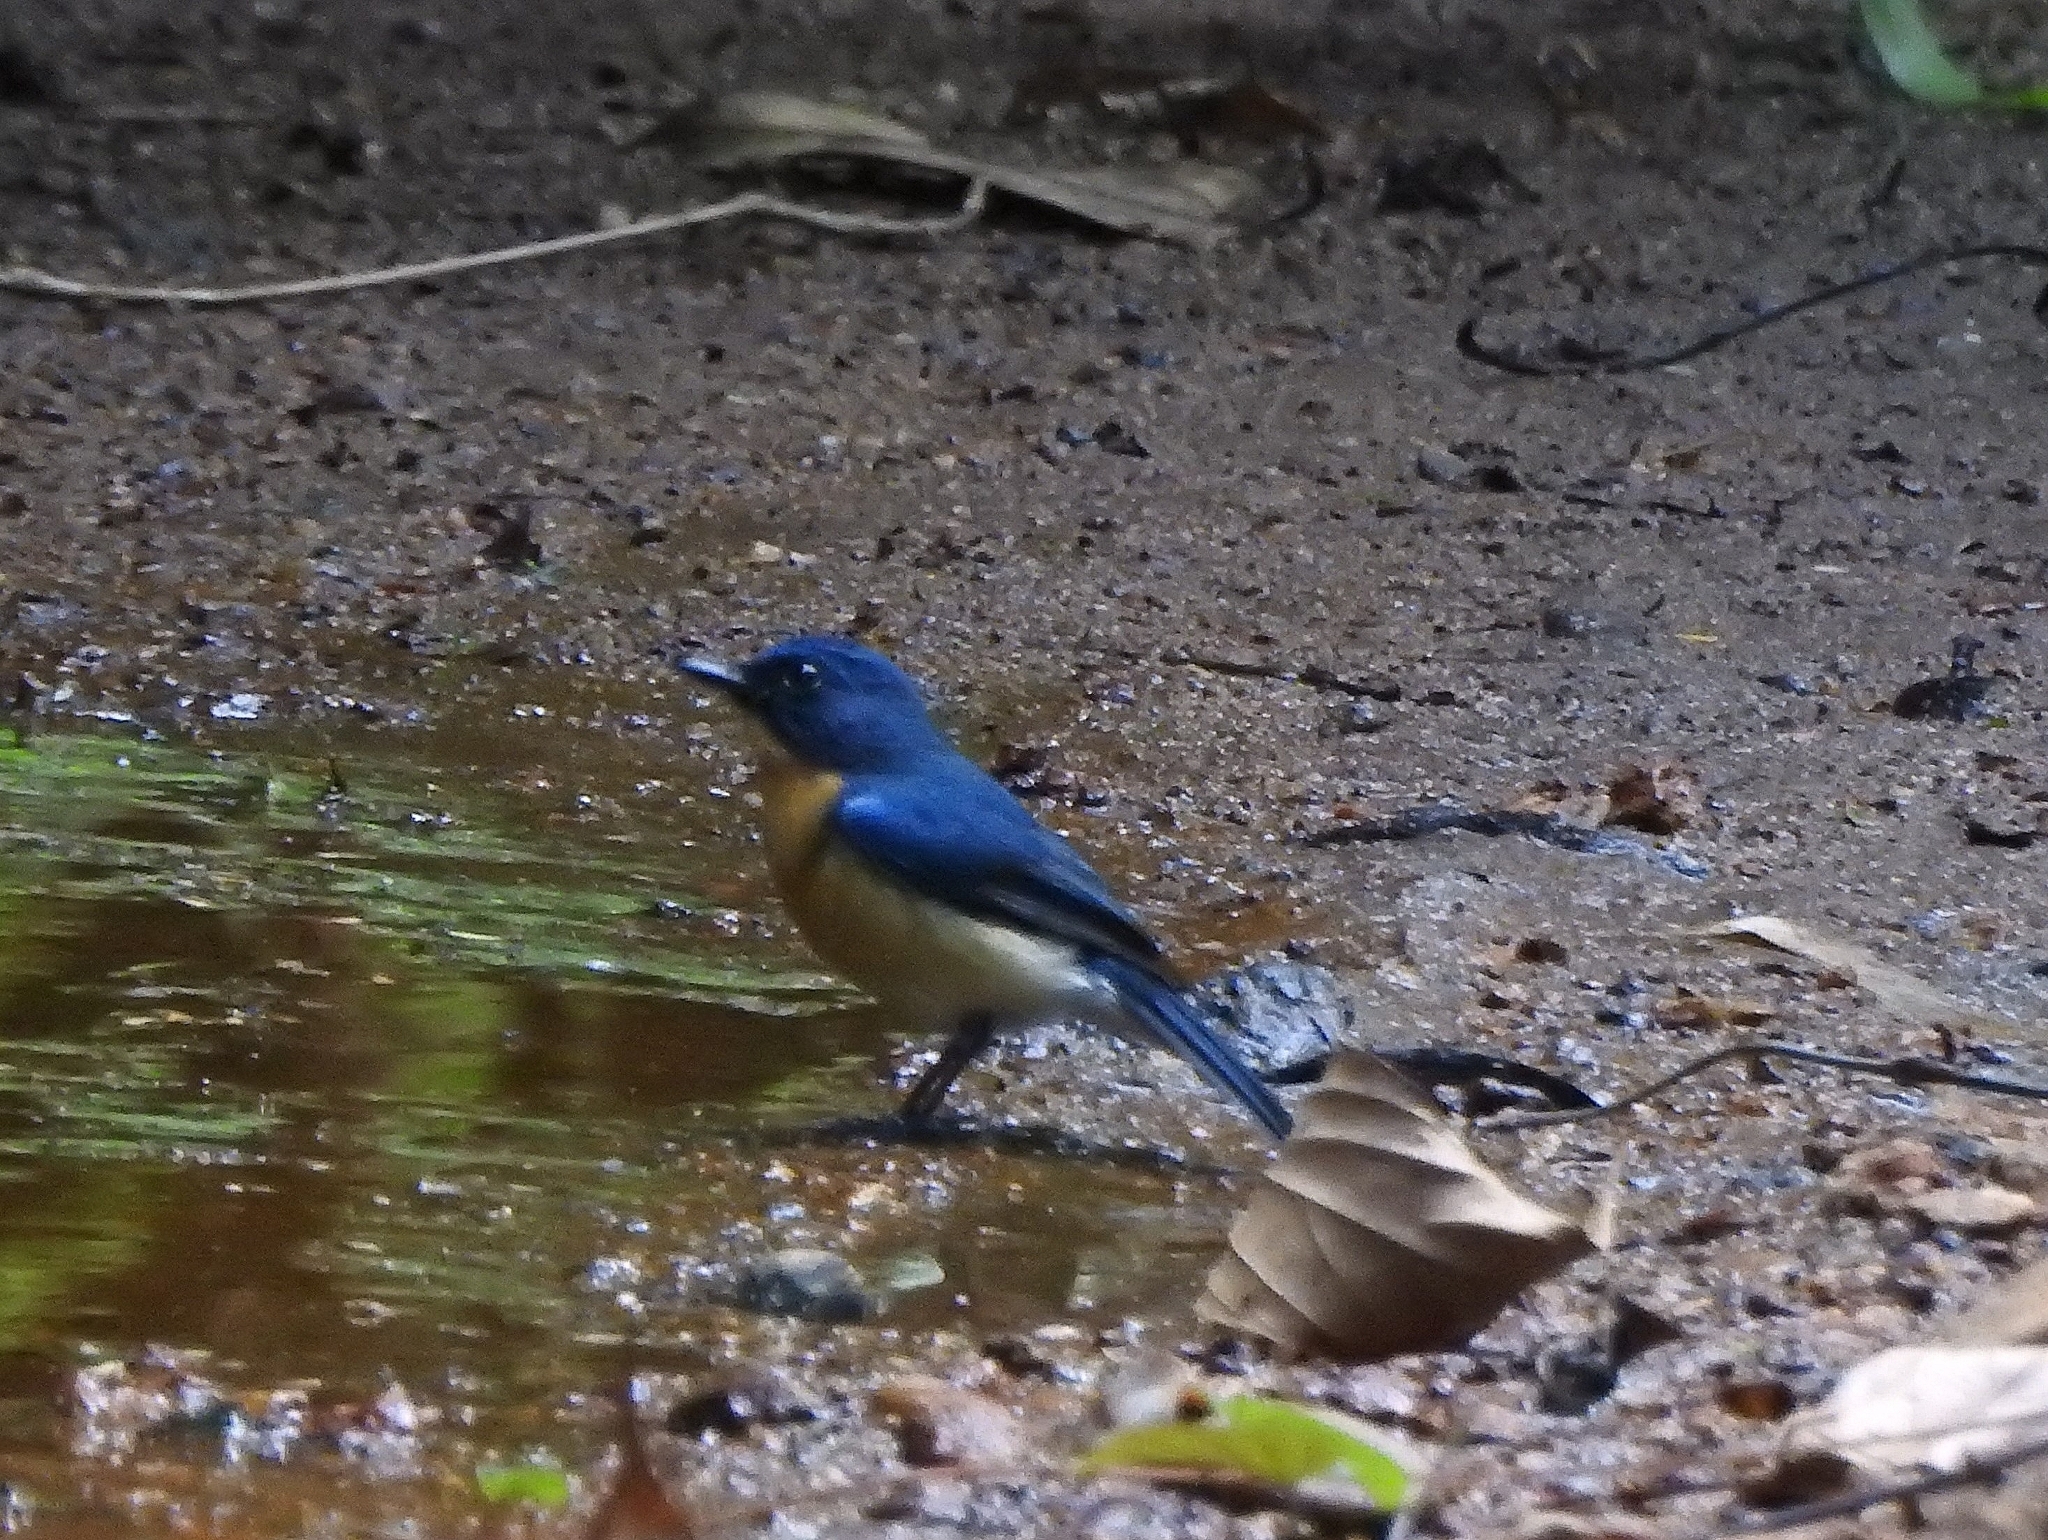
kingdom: Animalia
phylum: Chordata
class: Aves
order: Passeriformes
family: Muscicapidae
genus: Cyornis
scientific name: Cyornis tickelliae
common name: Tickell's blue flycatcher
